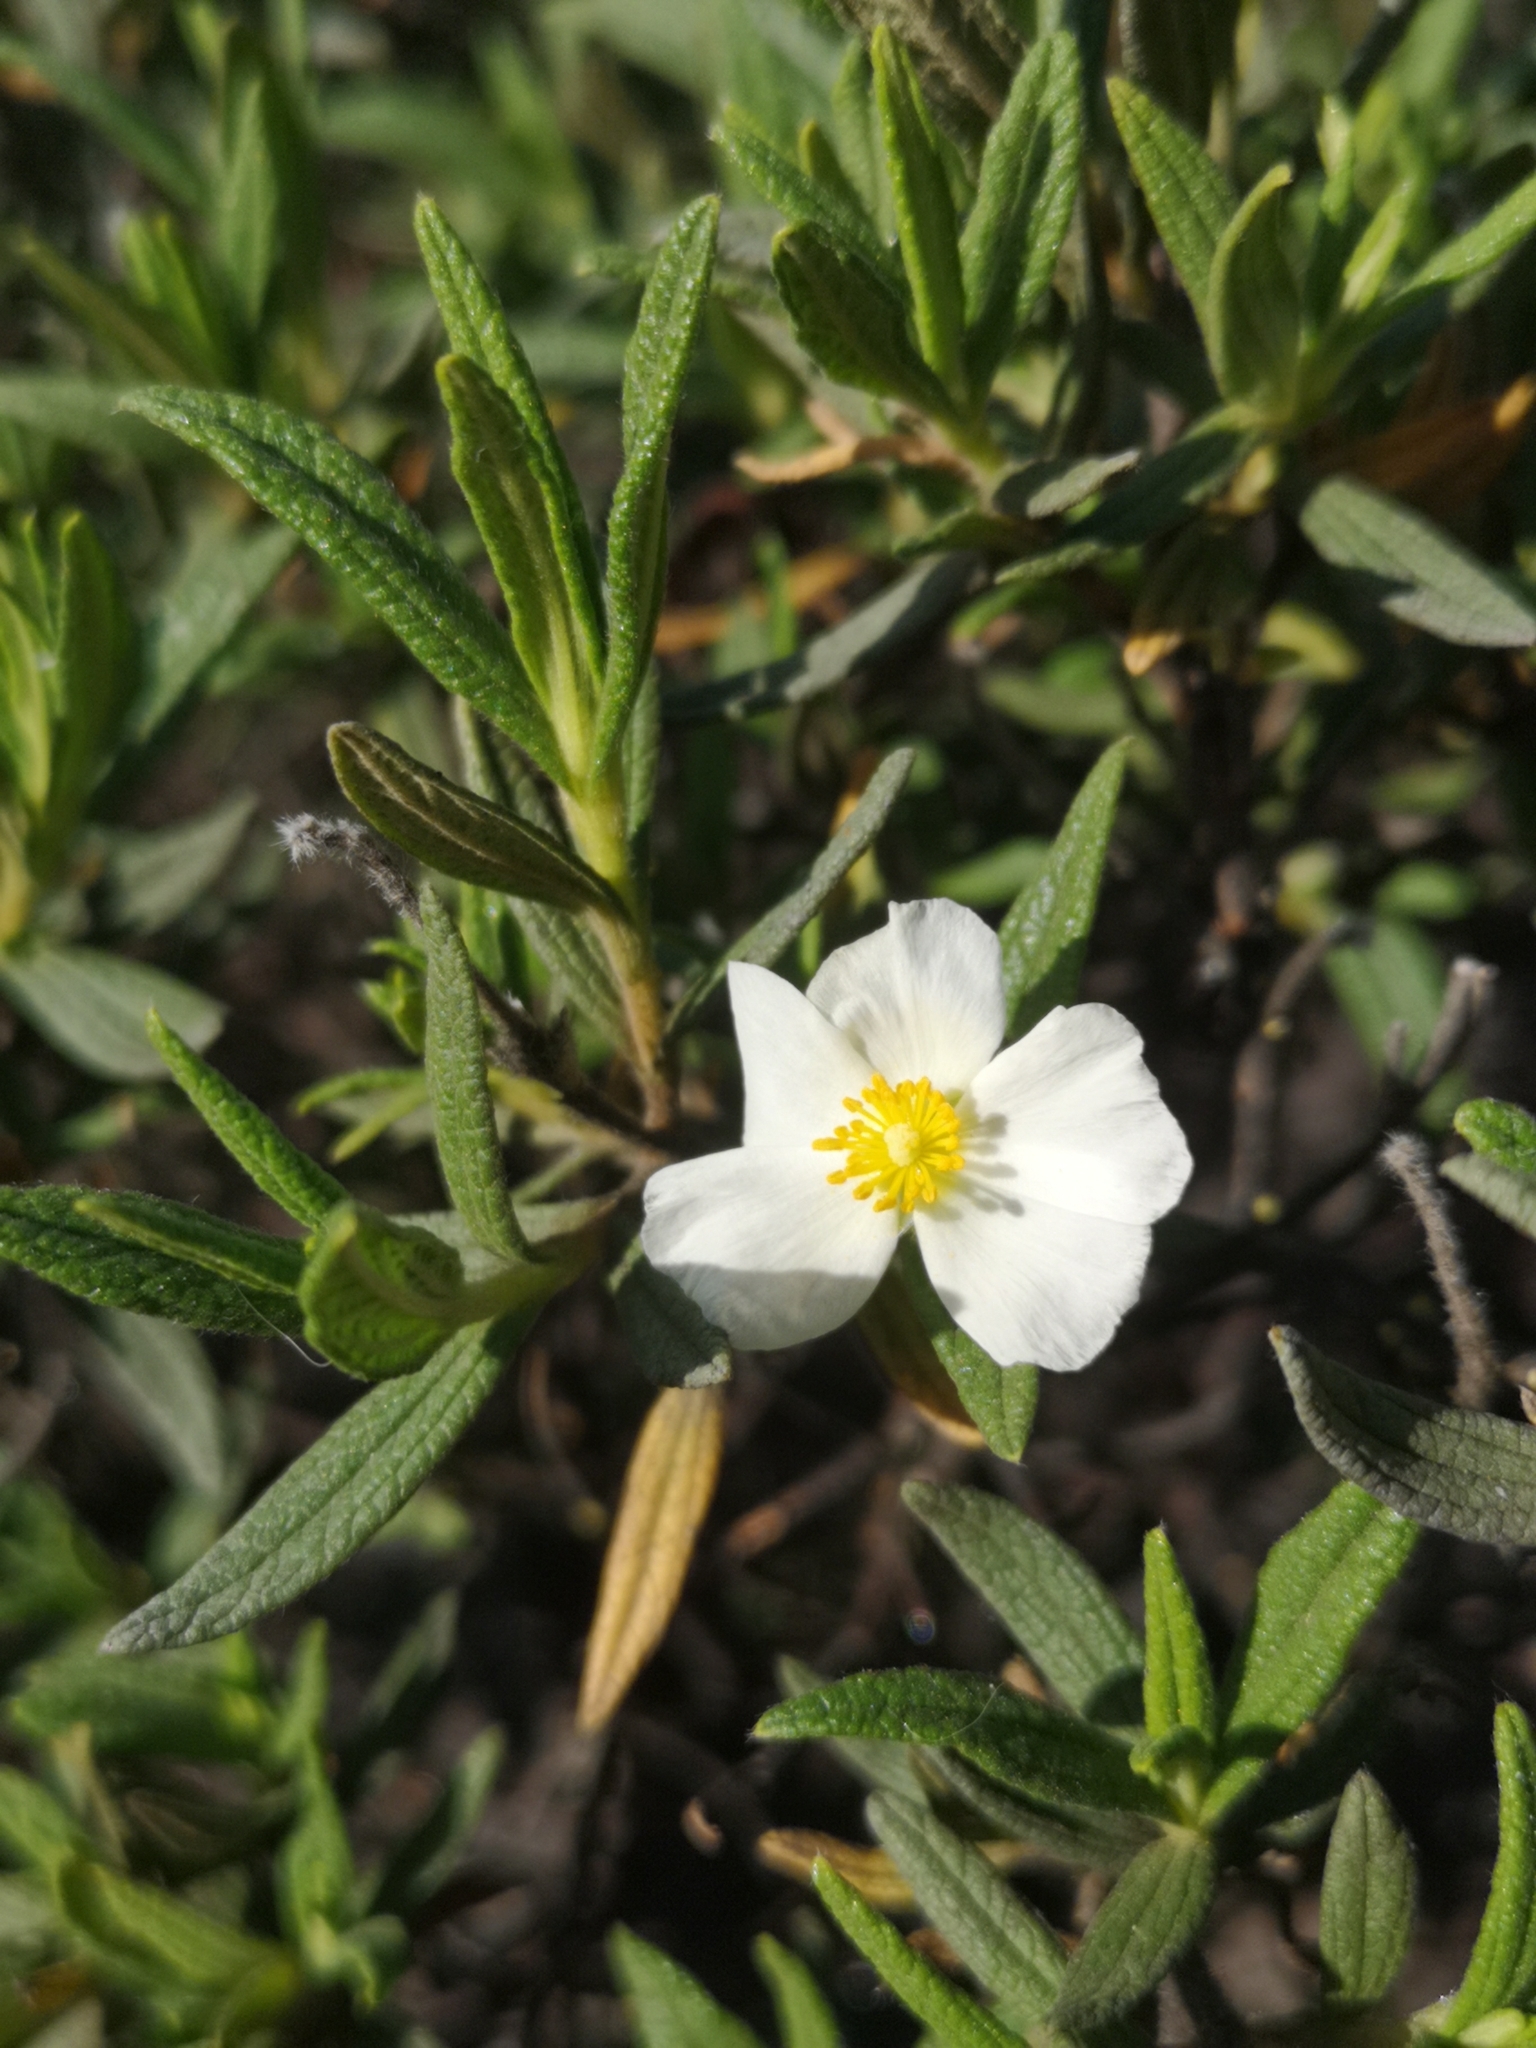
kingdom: Plantae
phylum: Tracheophyta
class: Magnoliopsida
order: Malvales
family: Cistaceae
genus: Cistus
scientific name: Cistus monspeliensis
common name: Montpelier cistus
